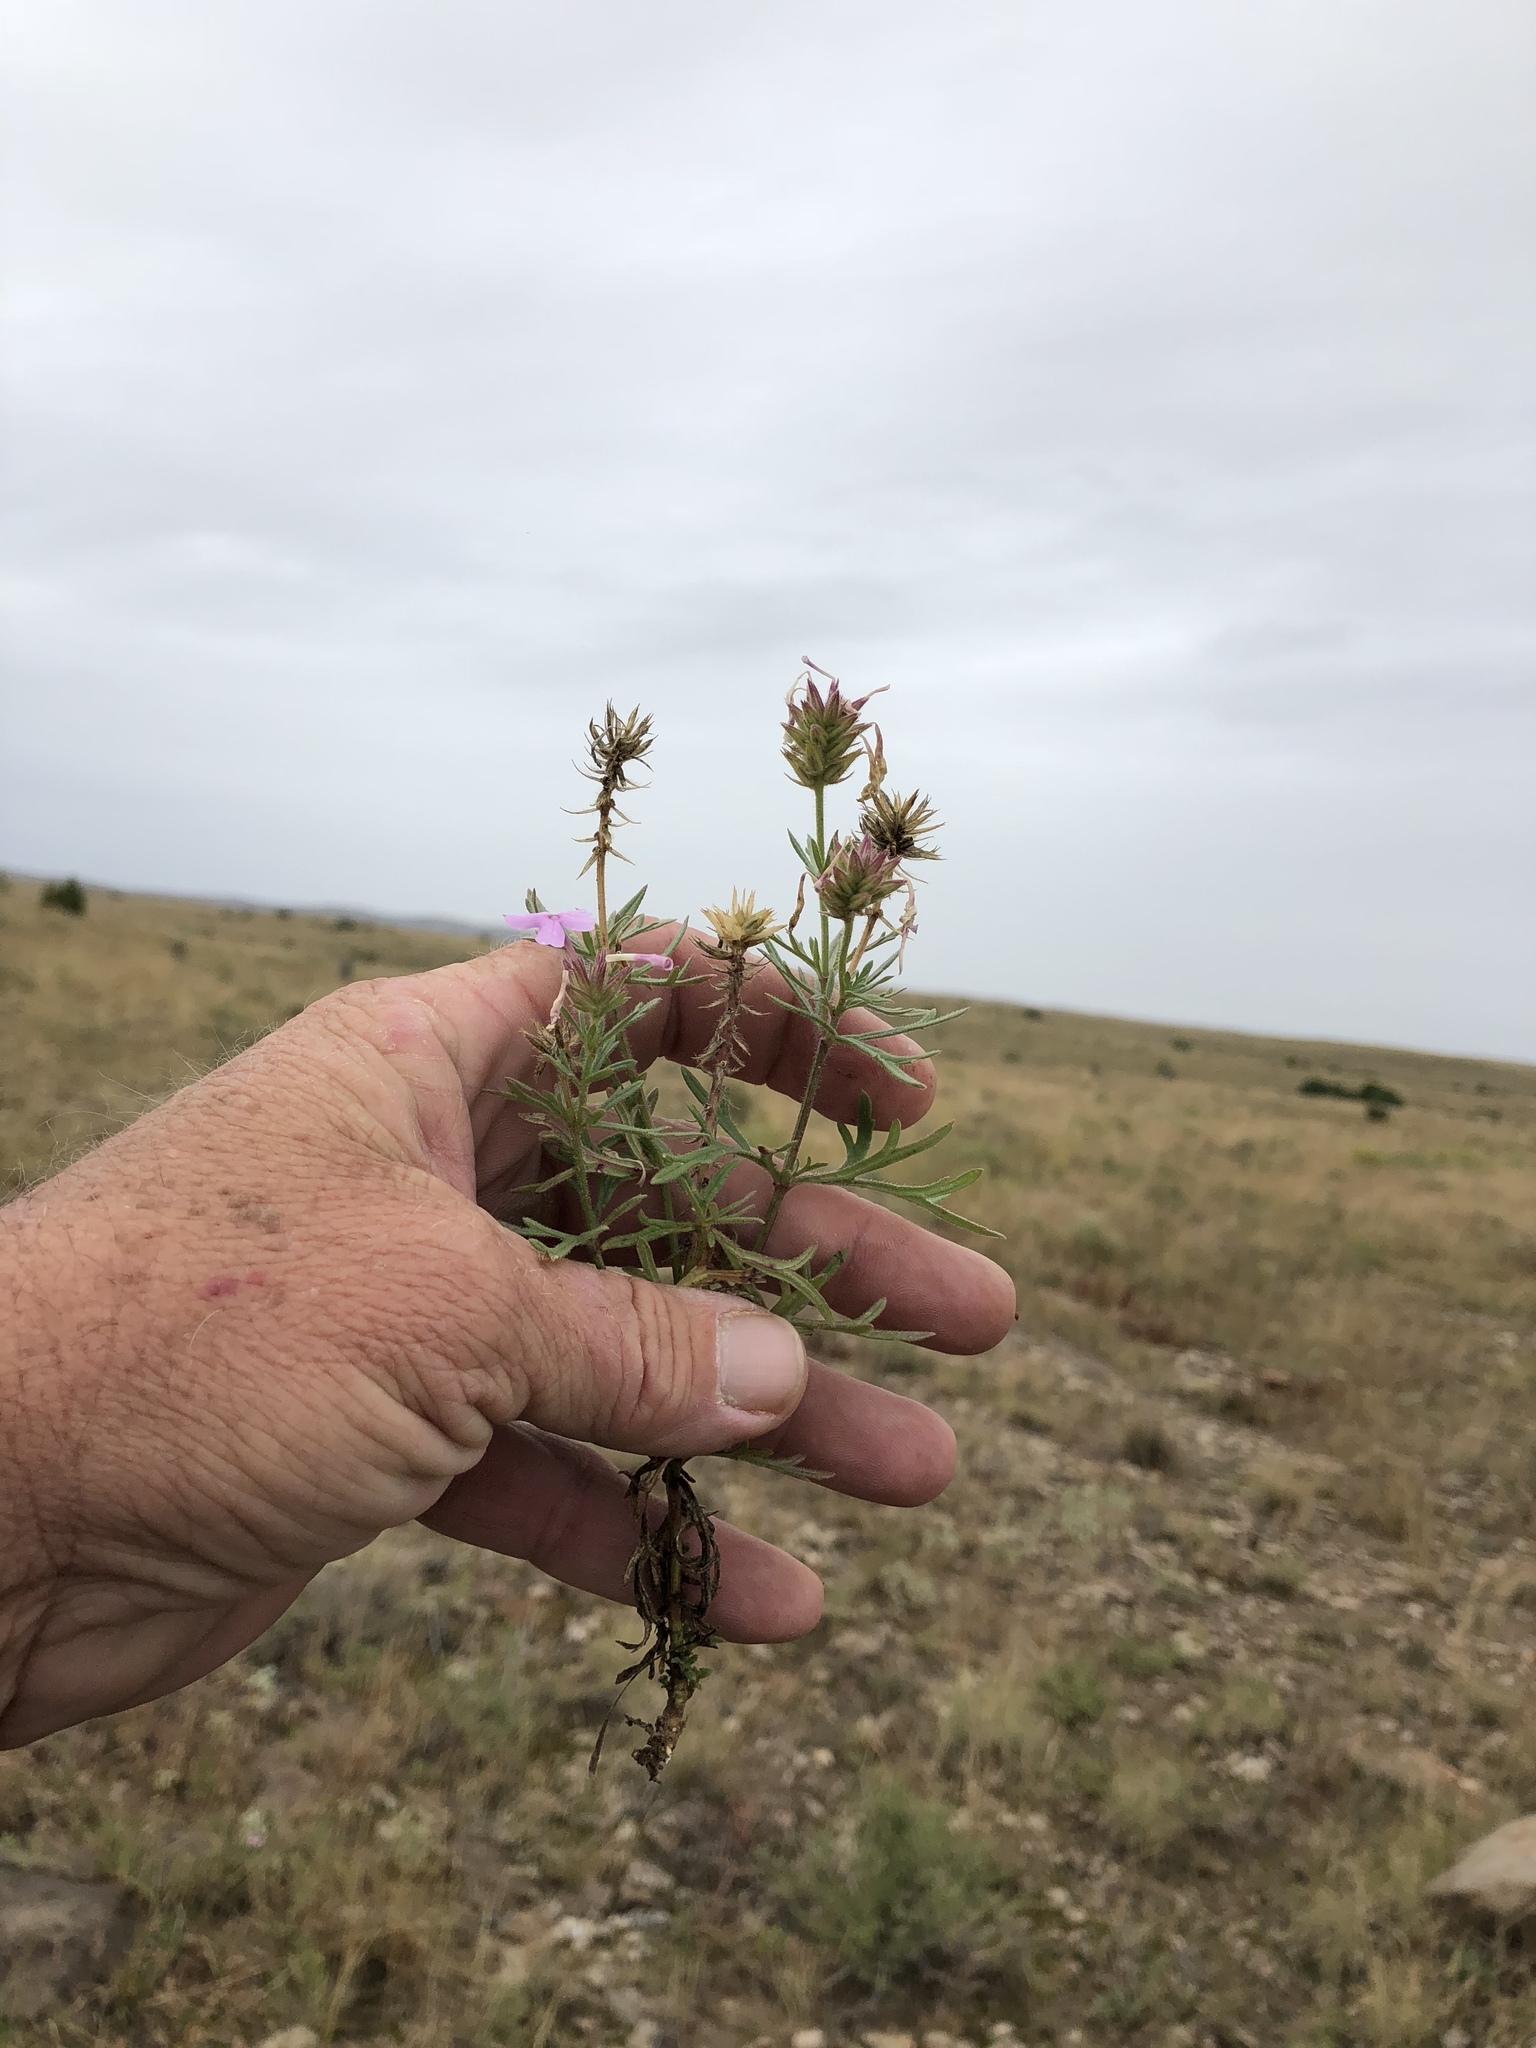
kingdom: Plantae
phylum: Tracheophyta
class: Magnoliopsida
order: Lamiales
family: Verbenaceae
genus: Verbena
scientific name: Verbena bipinnatifida
